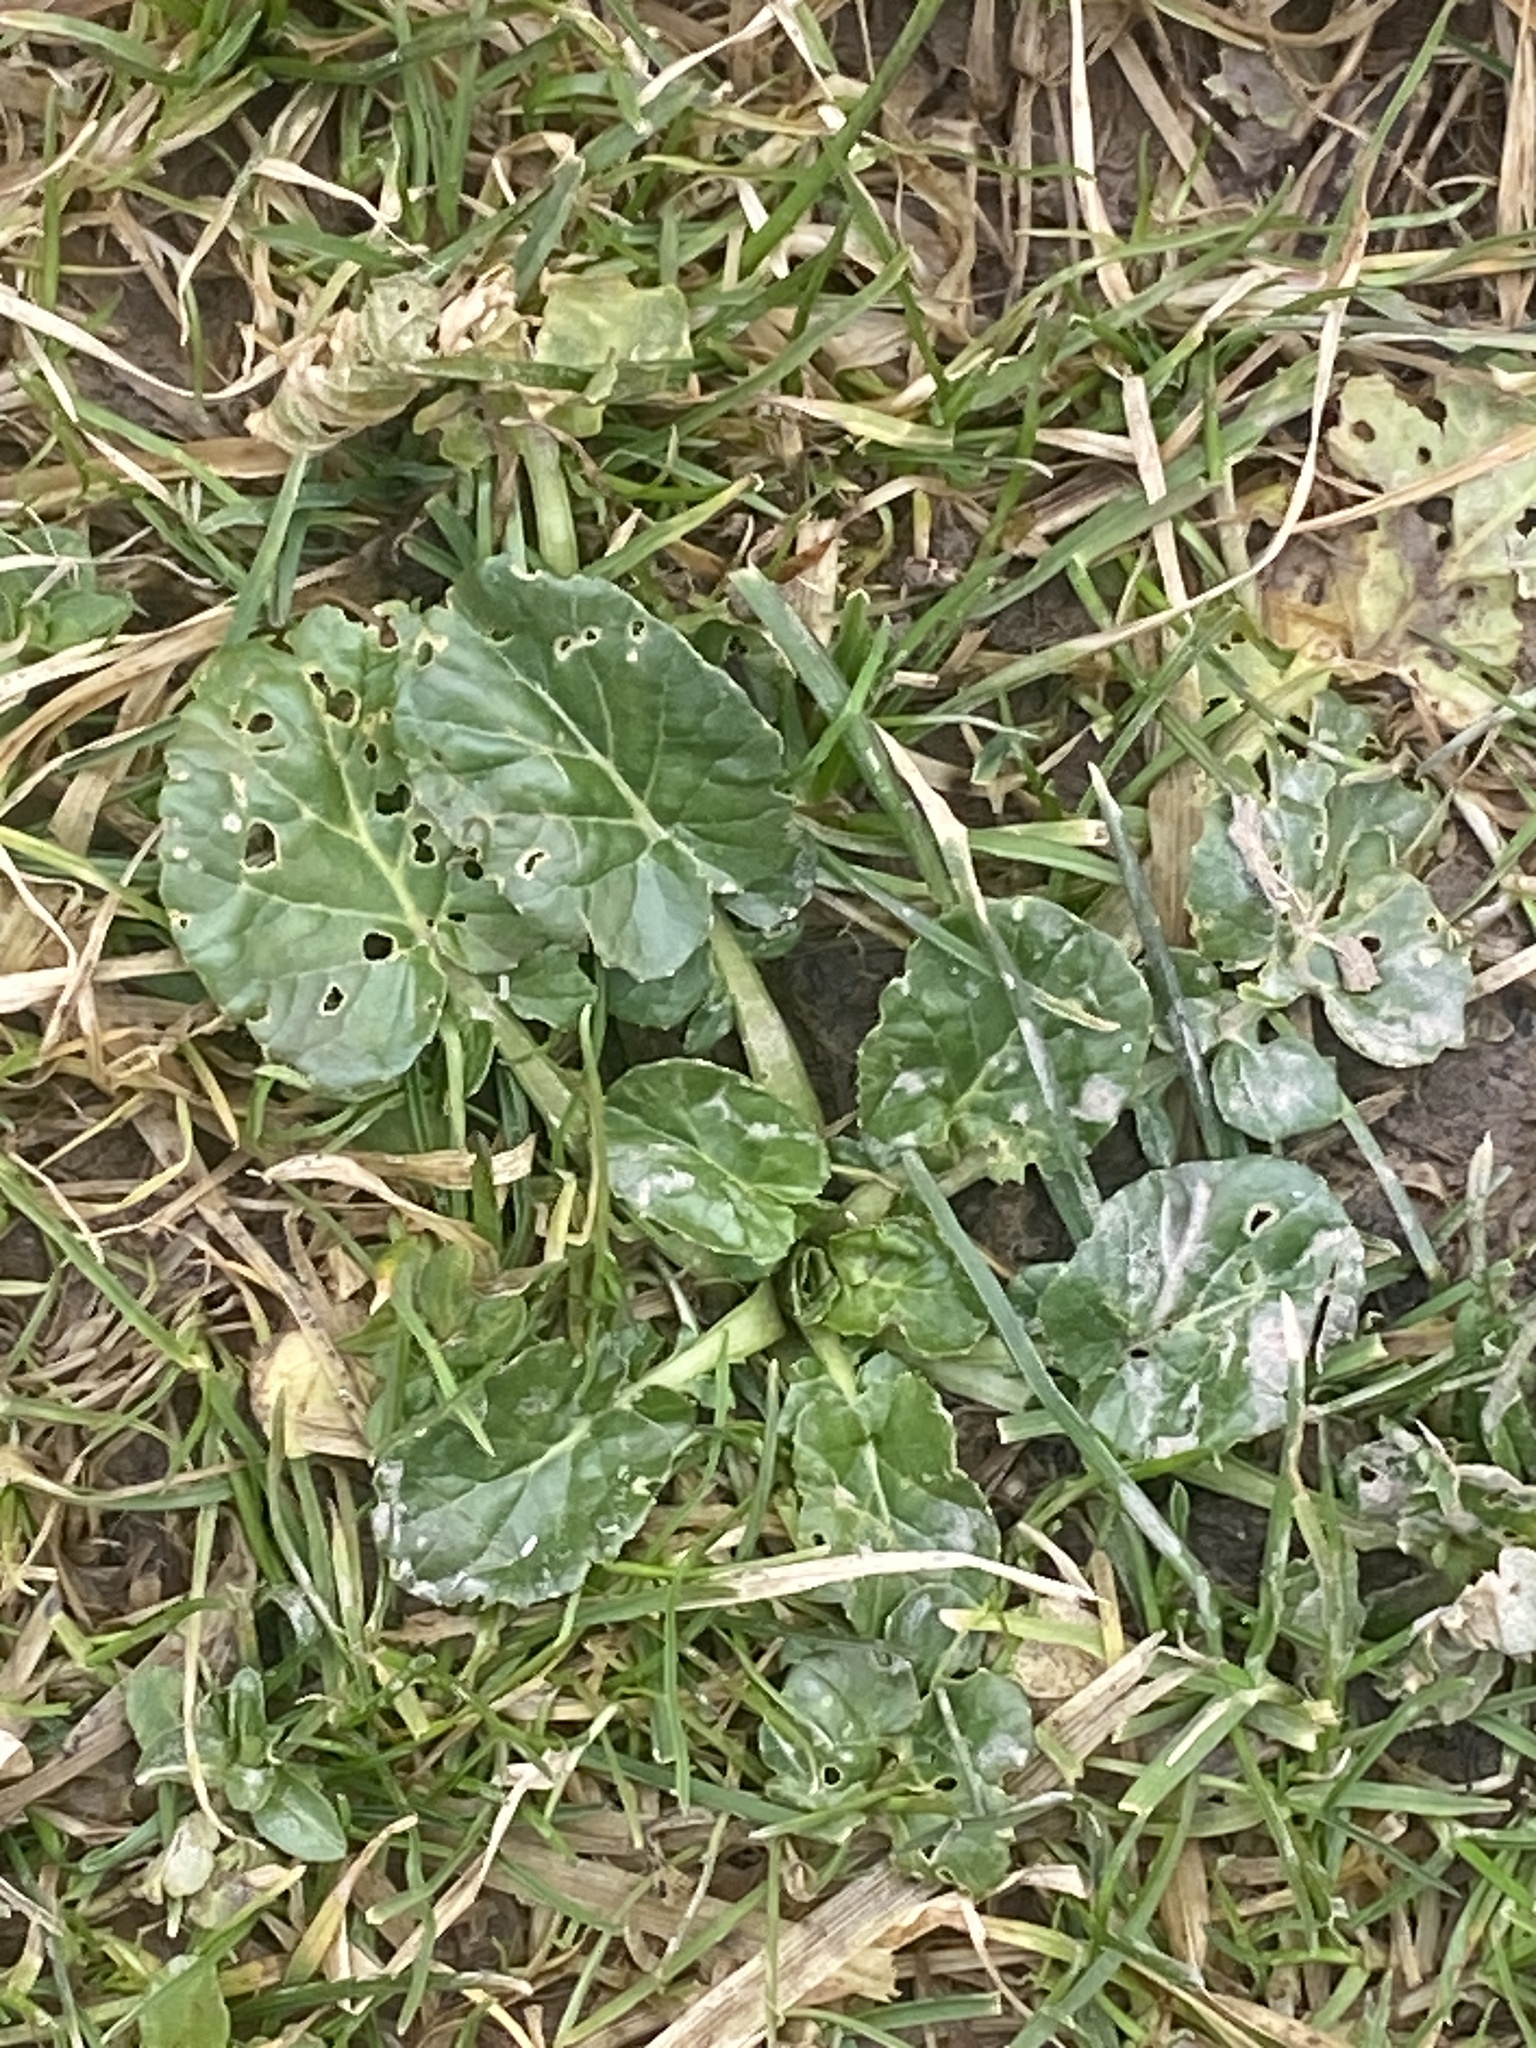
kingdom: Plantae
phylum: Tracheophyta
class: Magnoliopsida
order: Brassicales
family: Brassicaceae
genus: Barbarea
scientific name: Barbarea vulgaris
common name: Cressy-greens
